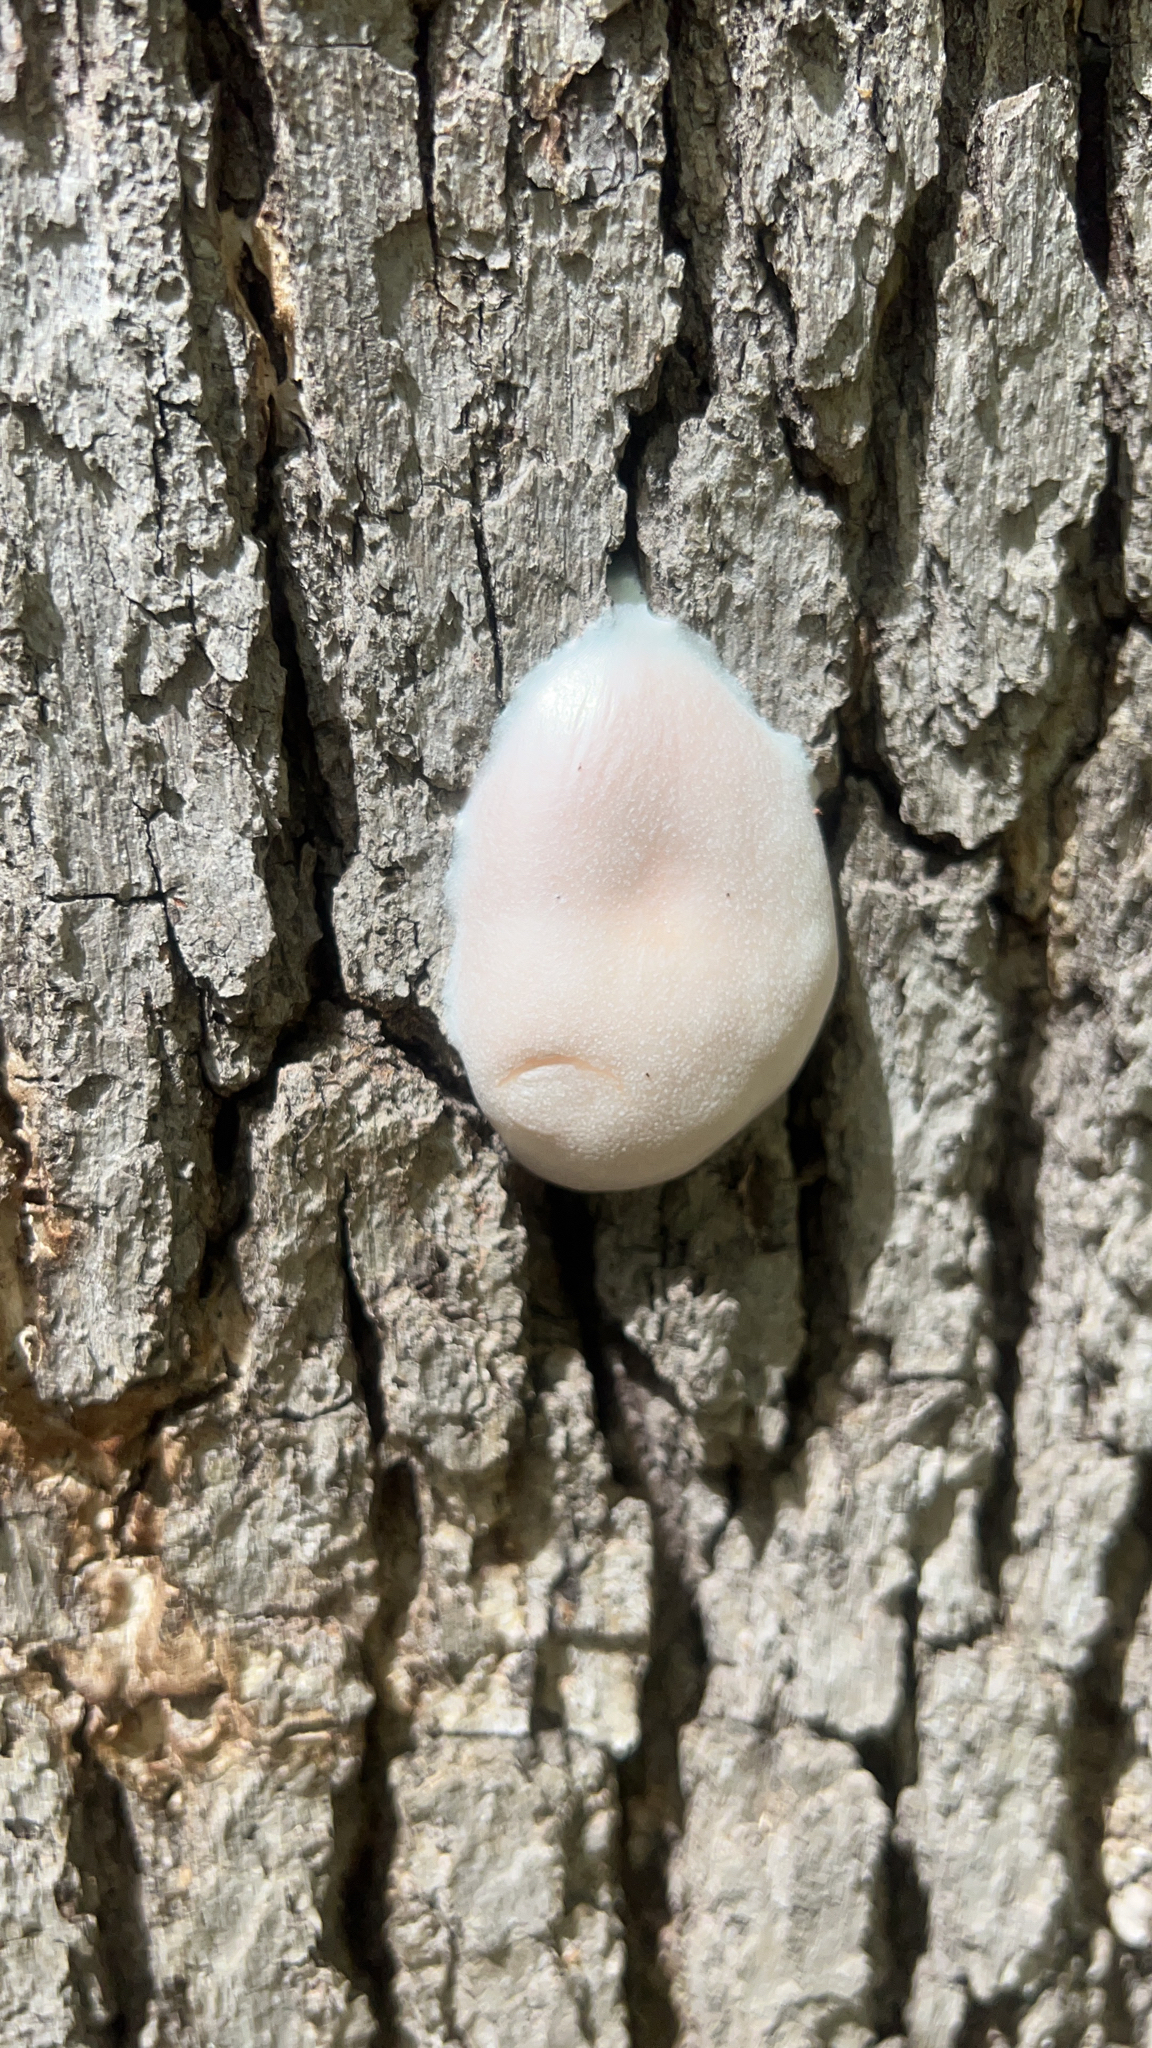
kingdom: Protozoa
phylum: Mycetozoa
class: Myxomycetes
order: Cribrariales
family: Tubiferaceae
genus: Reticularia
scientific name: Reticularia lycoperdon
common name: False puffball
